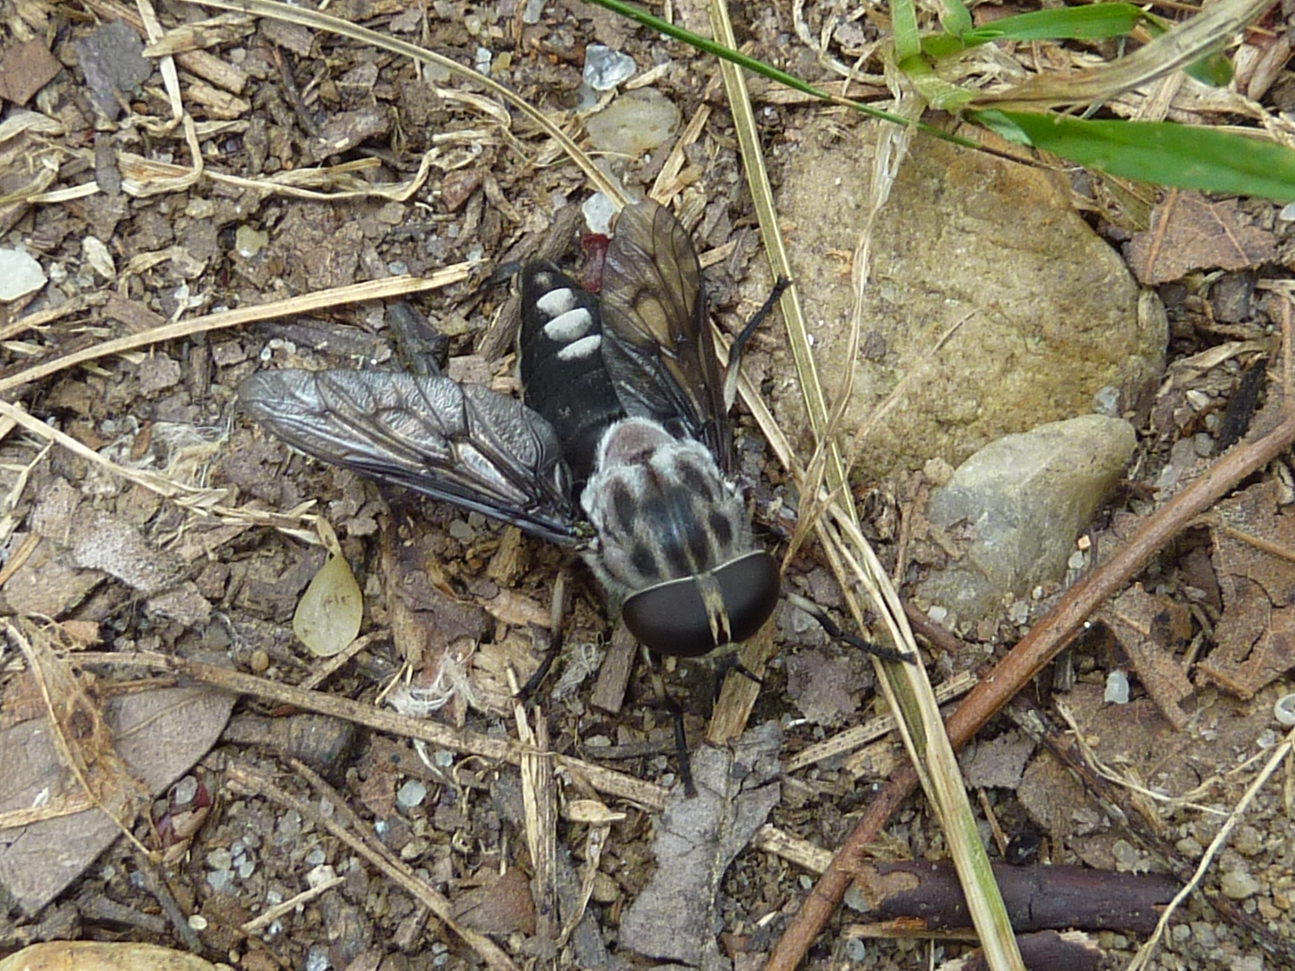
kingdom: Animalia
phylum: Arthropoda
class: Insecta
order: Diptera
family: Tabanidae
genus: Tabanus
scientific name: Tabanus trimaculatus
